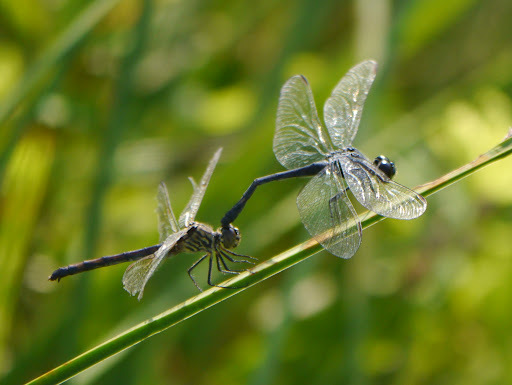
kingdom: Animalia
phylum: Arthropoda
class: Insecta
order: Odonata
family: Libellulidae
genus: Erythrodiplax
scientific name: Erythrodiplax berenice
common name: Seaside dragonlet
